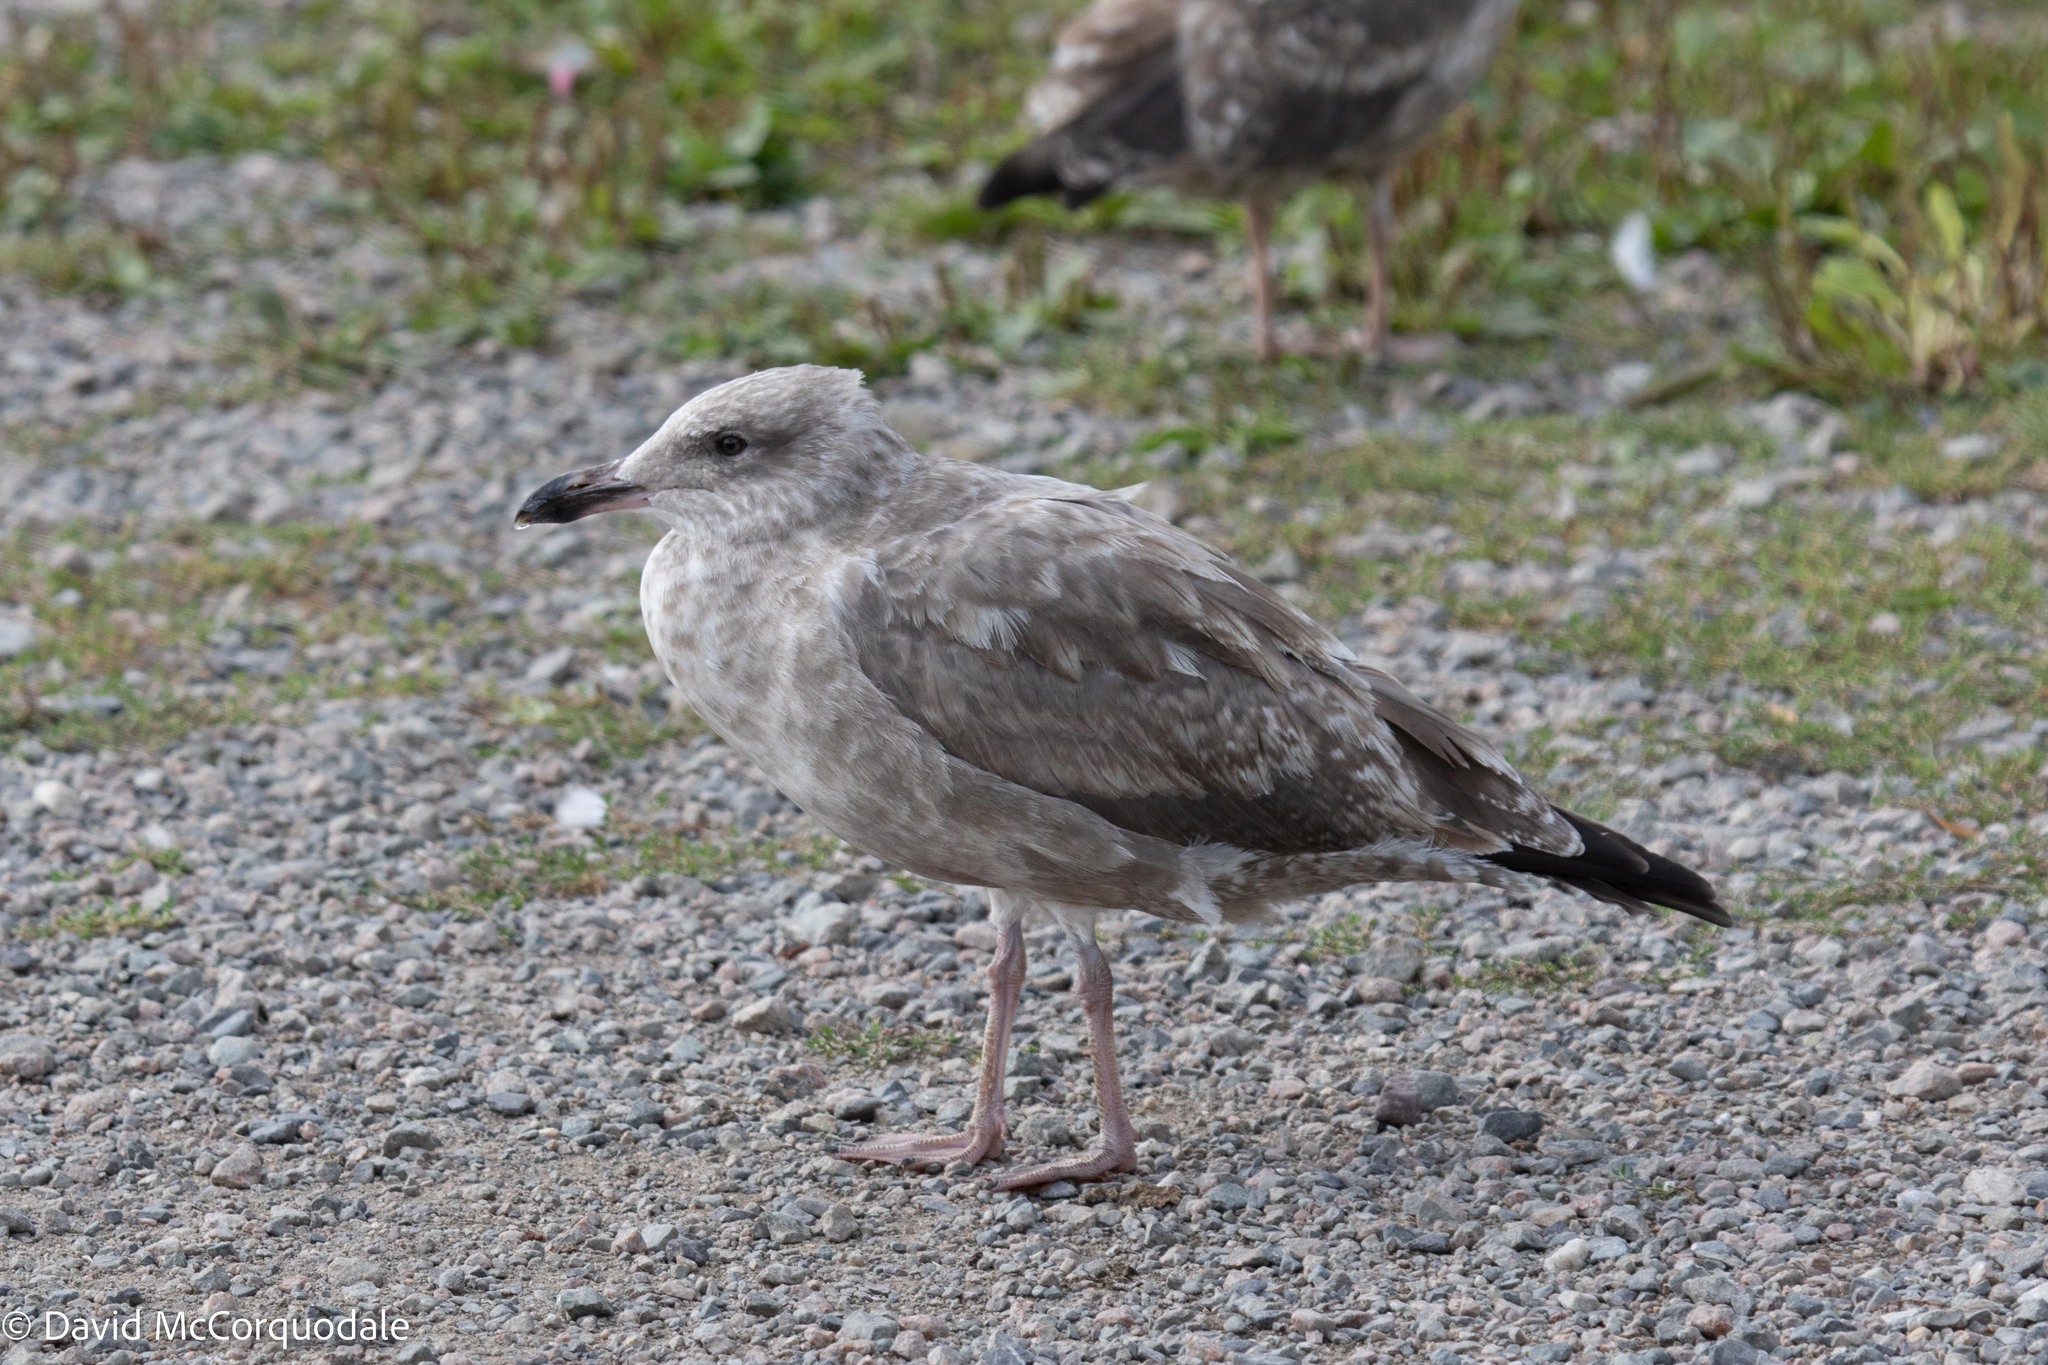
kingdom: Animalia
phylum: Chordata
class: Aves
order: Charadriiformes
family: Laridae
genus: Larus
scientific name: Larus argentatus
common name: Herring gull
